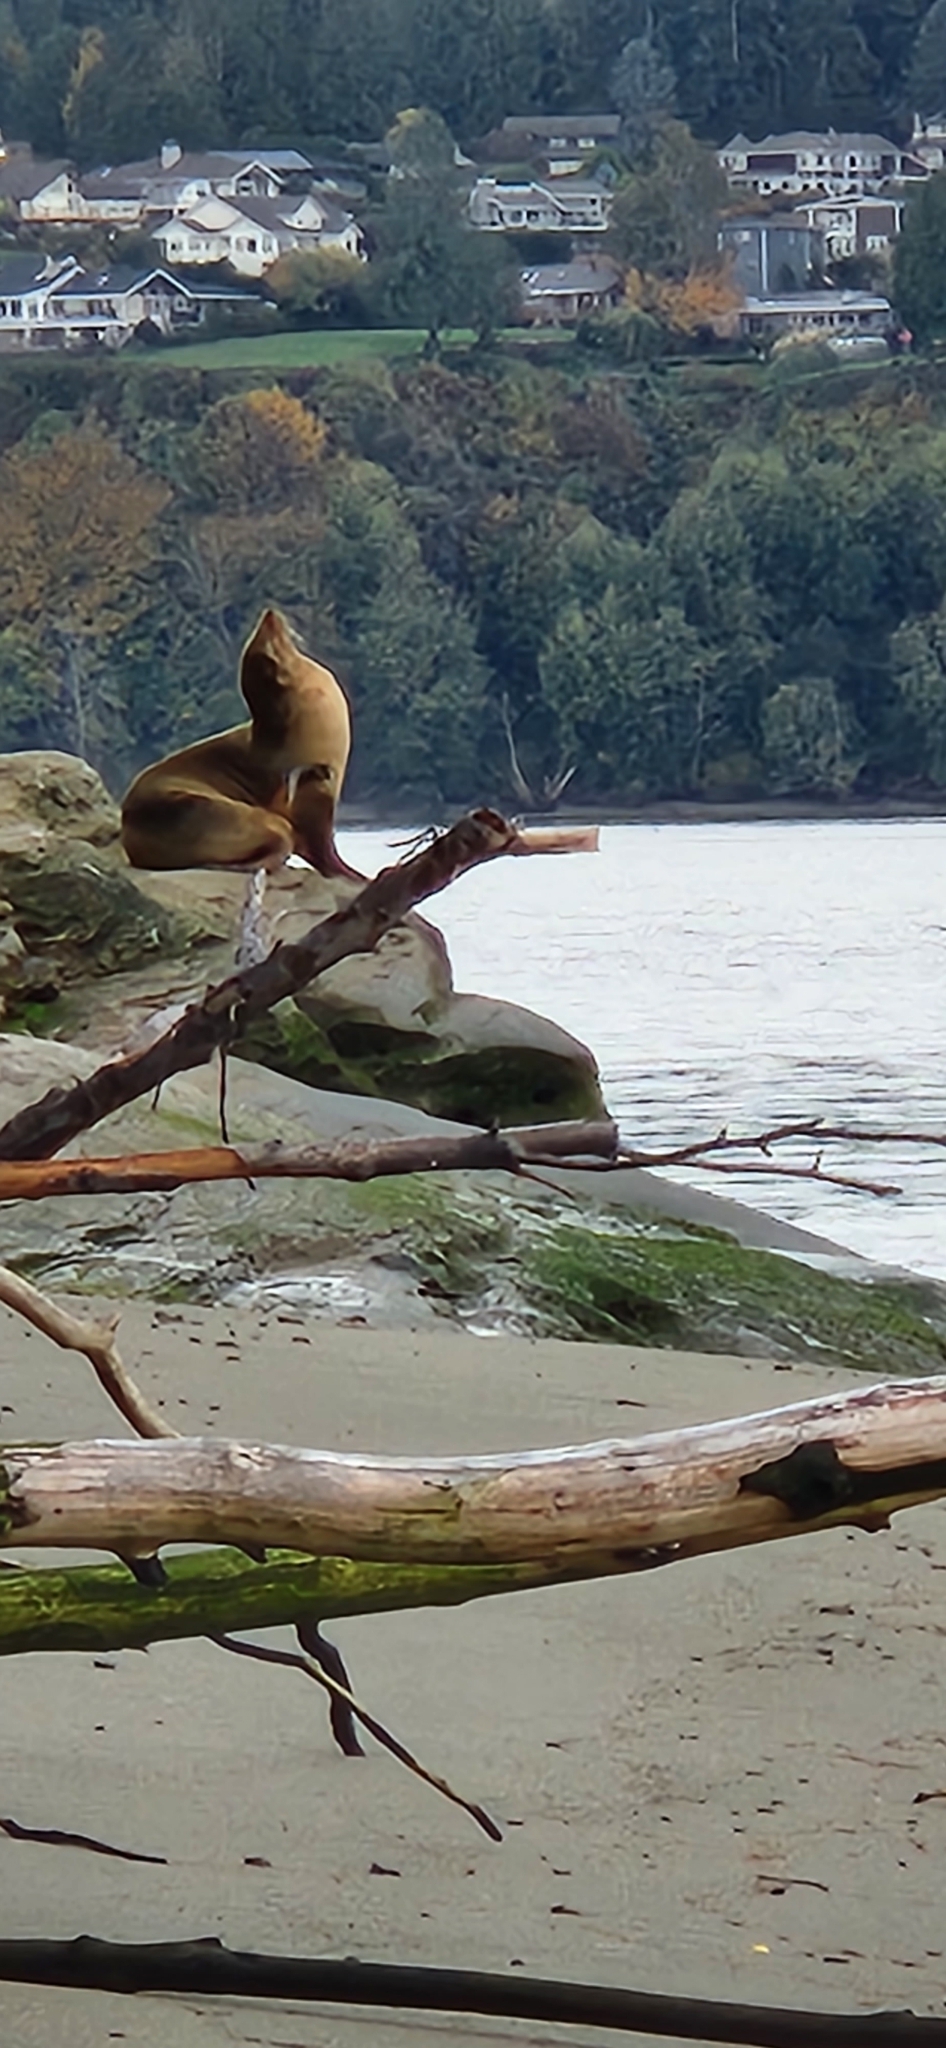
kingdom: Animalia
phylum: Chordata
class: Mammalia
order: Carnivora
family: Otariidae
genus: Eumetopias
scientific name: Eumetopias jubatus
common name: Steller sea lion
